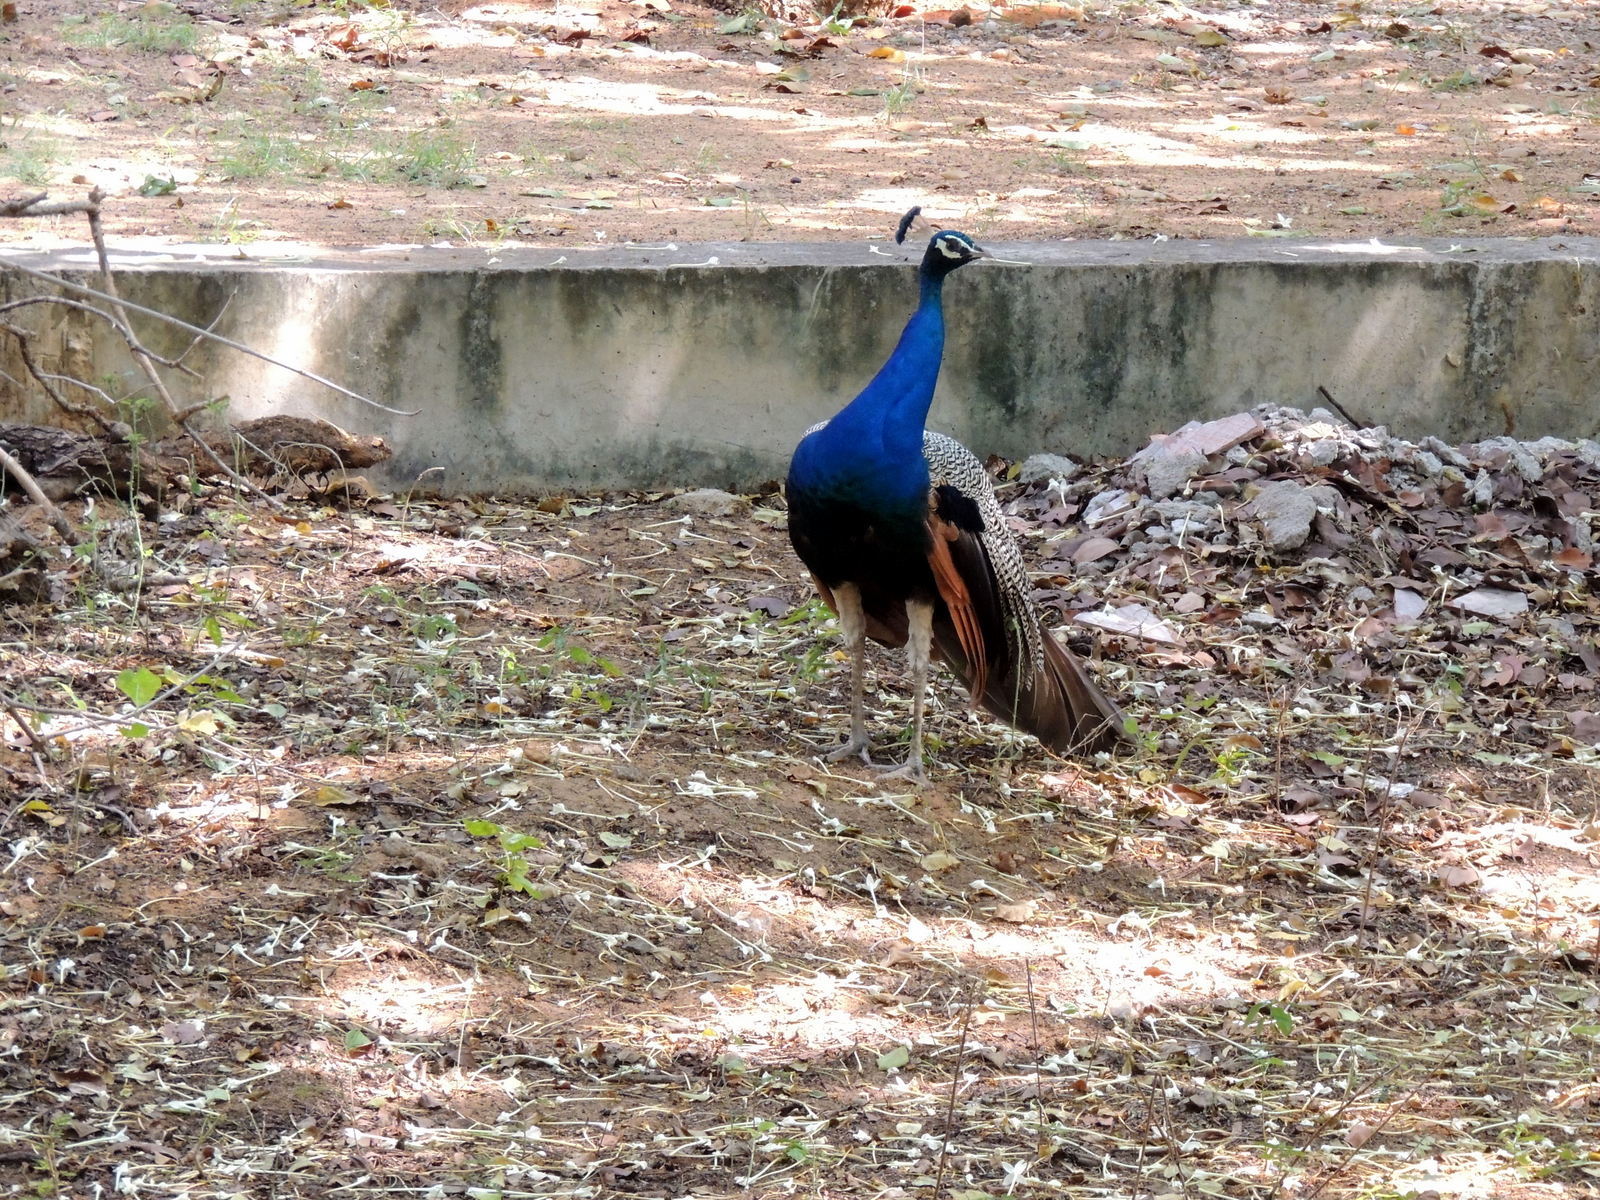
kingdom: Animalia
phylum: Chordata
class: Aves
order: Galliformes
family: Phasianidae
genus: Pavo
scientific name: Pavo cristatus
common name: Indian peafowl
